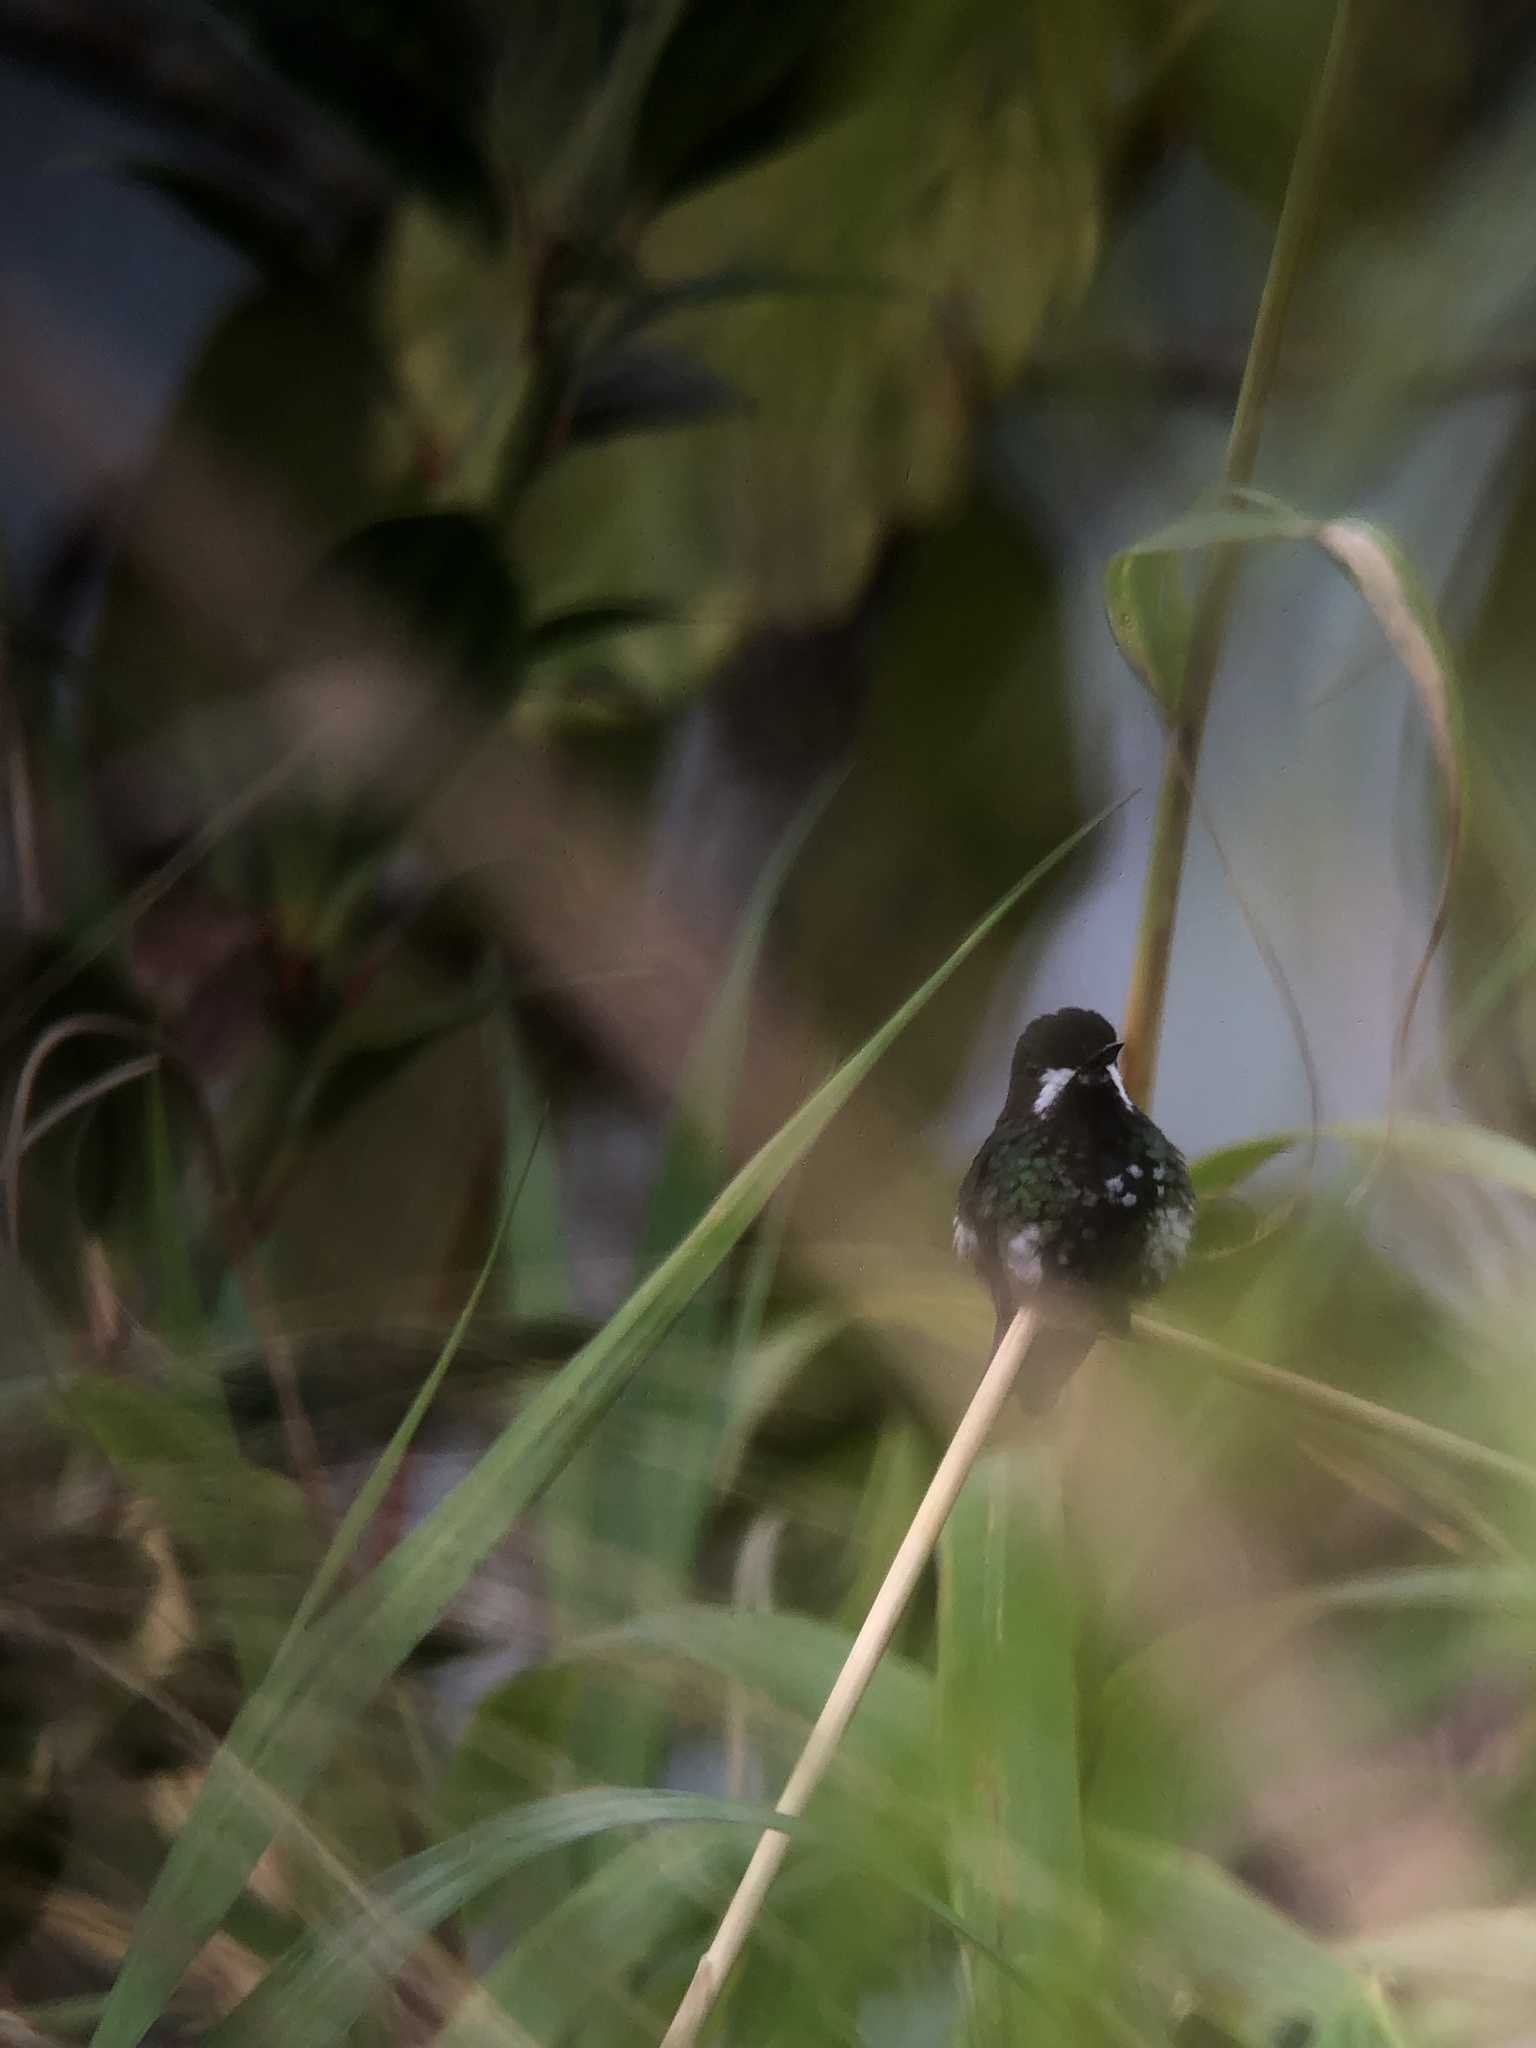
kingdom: Animalia
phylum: Chordata
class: Aves
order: Apodiformes
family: Trochilidae
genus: Discosura
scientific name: Discosura conversii
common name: Green thorntail
